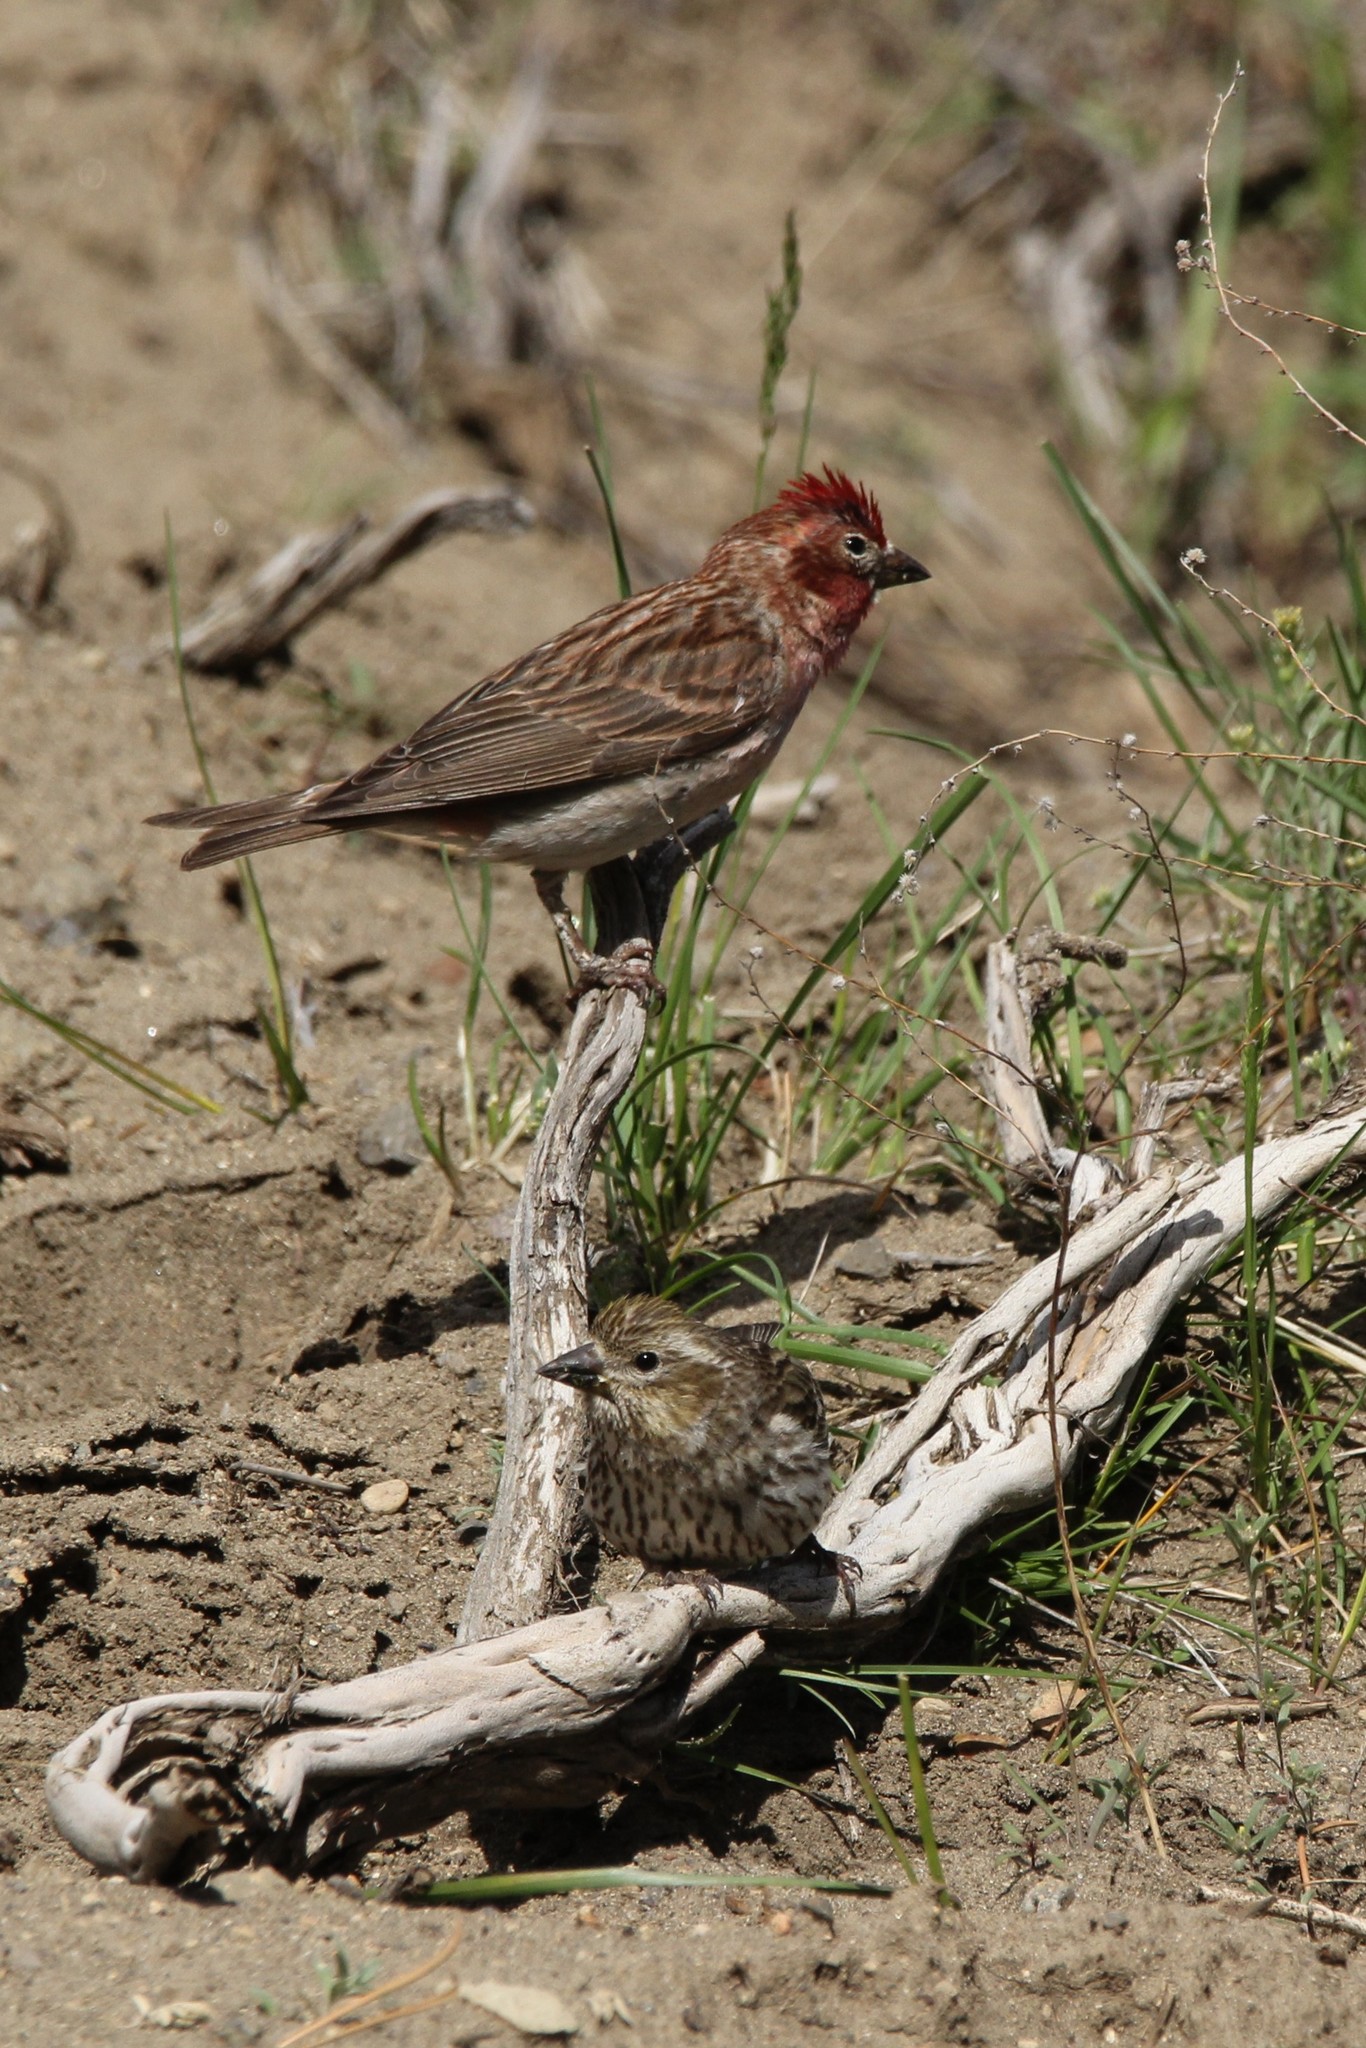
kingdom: Animalia
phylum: Chordata
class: Aves
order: Passeriformes
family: Fringillidae
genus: Haemorhous
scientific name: Haemorhous cassinii
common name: Cassin's finch
